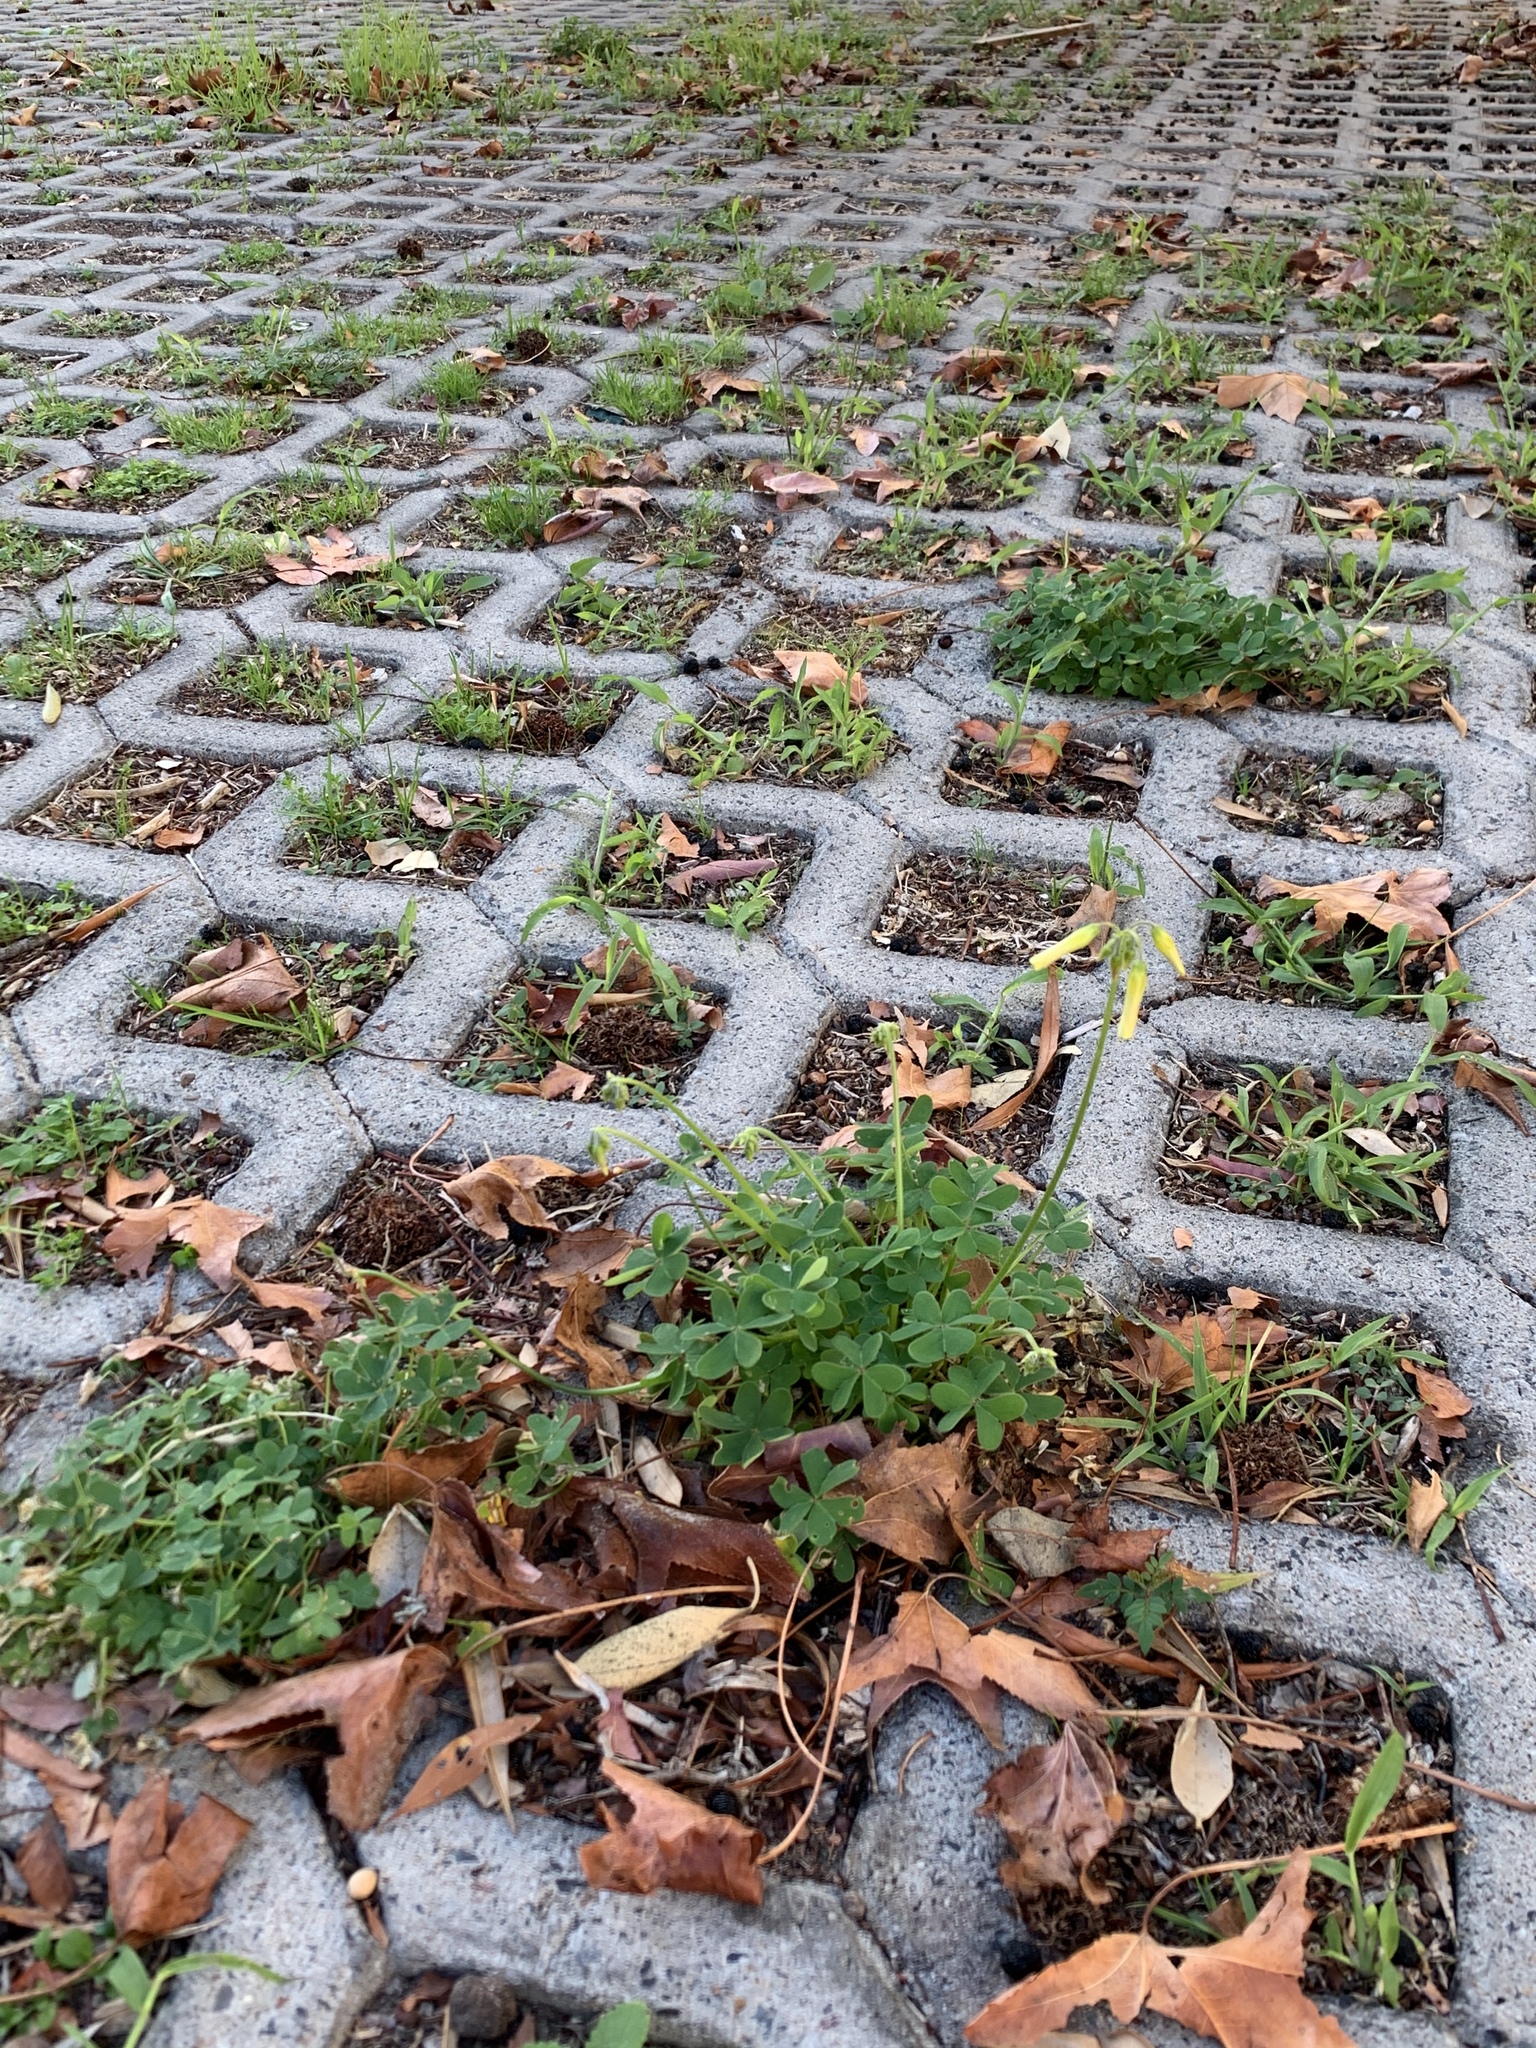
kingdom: Plantae
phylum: Tracheophyta
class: Magnoliopsida
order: Oxalidales
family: Oxalidaceae
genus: Oxalis
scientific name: Oxalis pes-caprae
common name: Bermuda-buttercup
